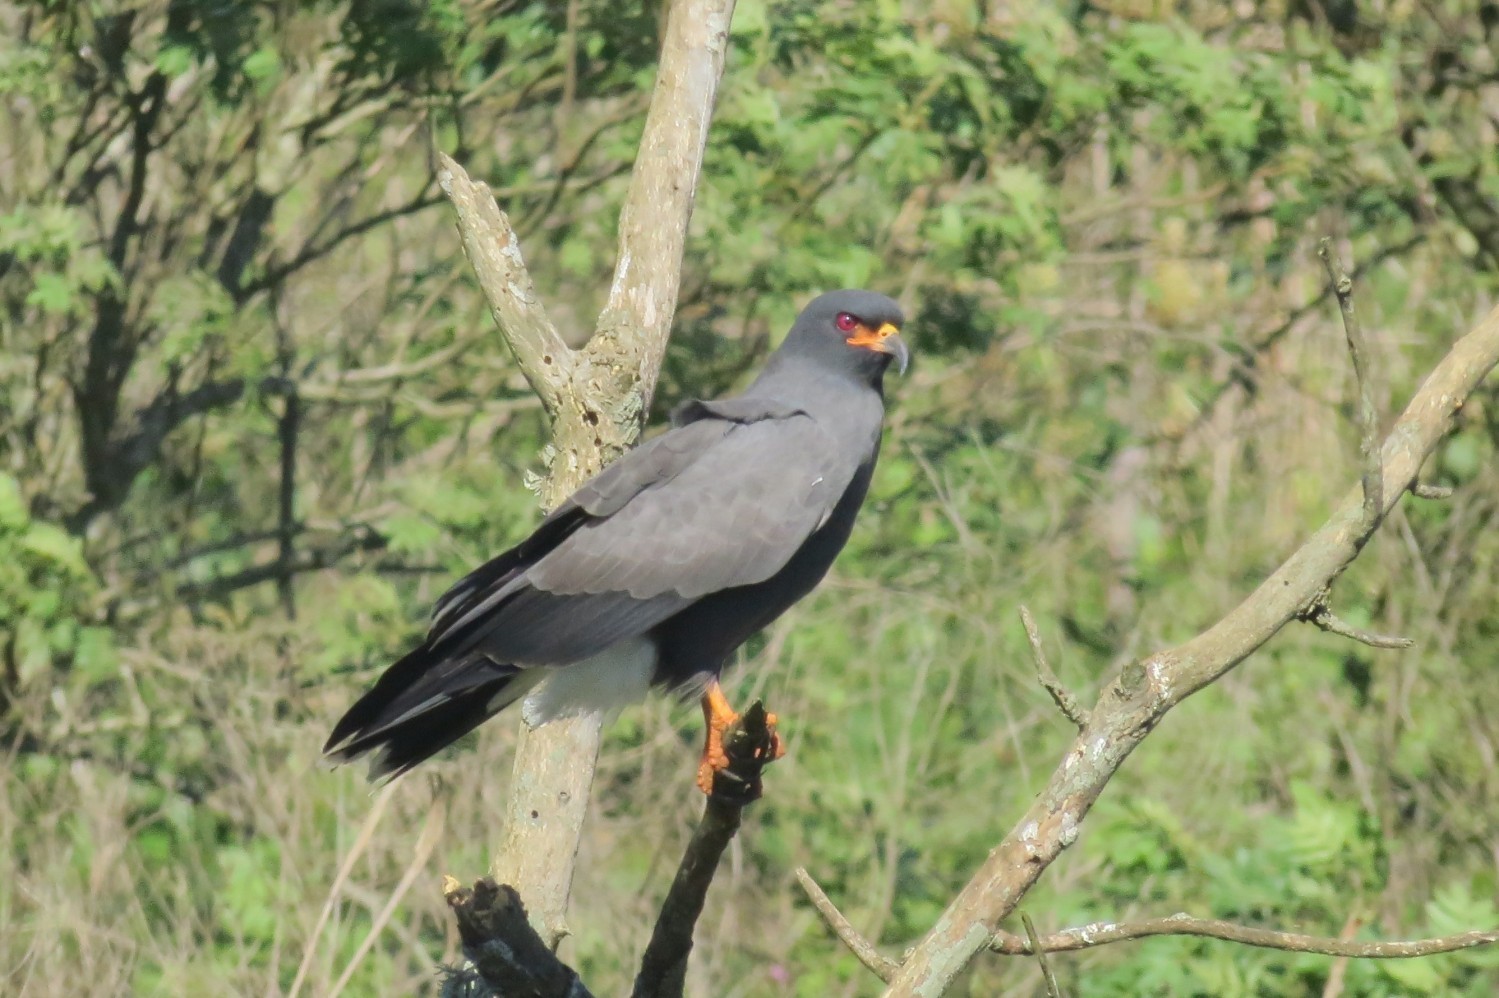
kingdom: Animalia
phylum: Chordata
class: Aves
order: Accipitriformes
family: Accipitridae
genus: Rostrhamus
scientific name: Rostrhamus sociabilis
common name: Snail kite
